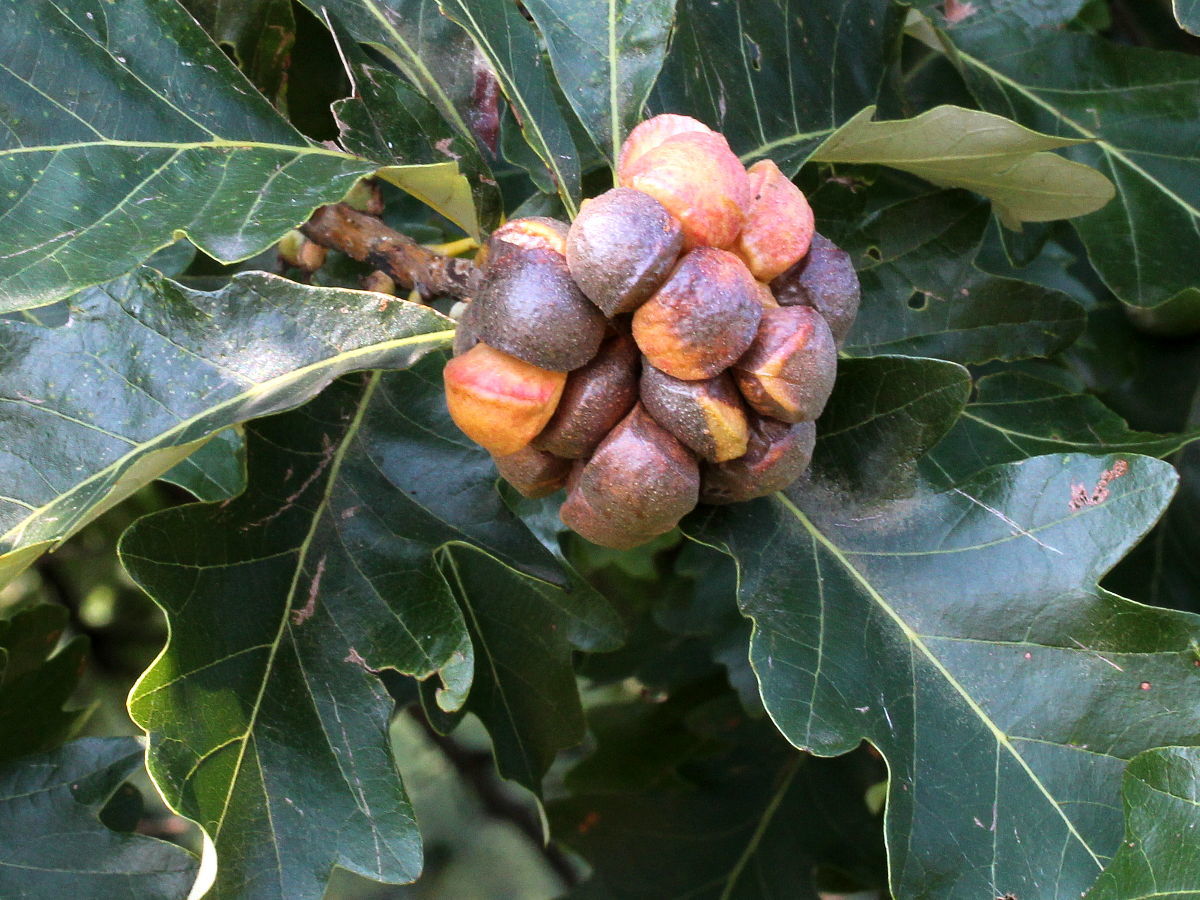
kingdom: Animalia
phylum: Arthropoda
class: Insecta
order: Hymenoptera
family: Cynipidae
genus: Andricus
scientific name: Andricus
